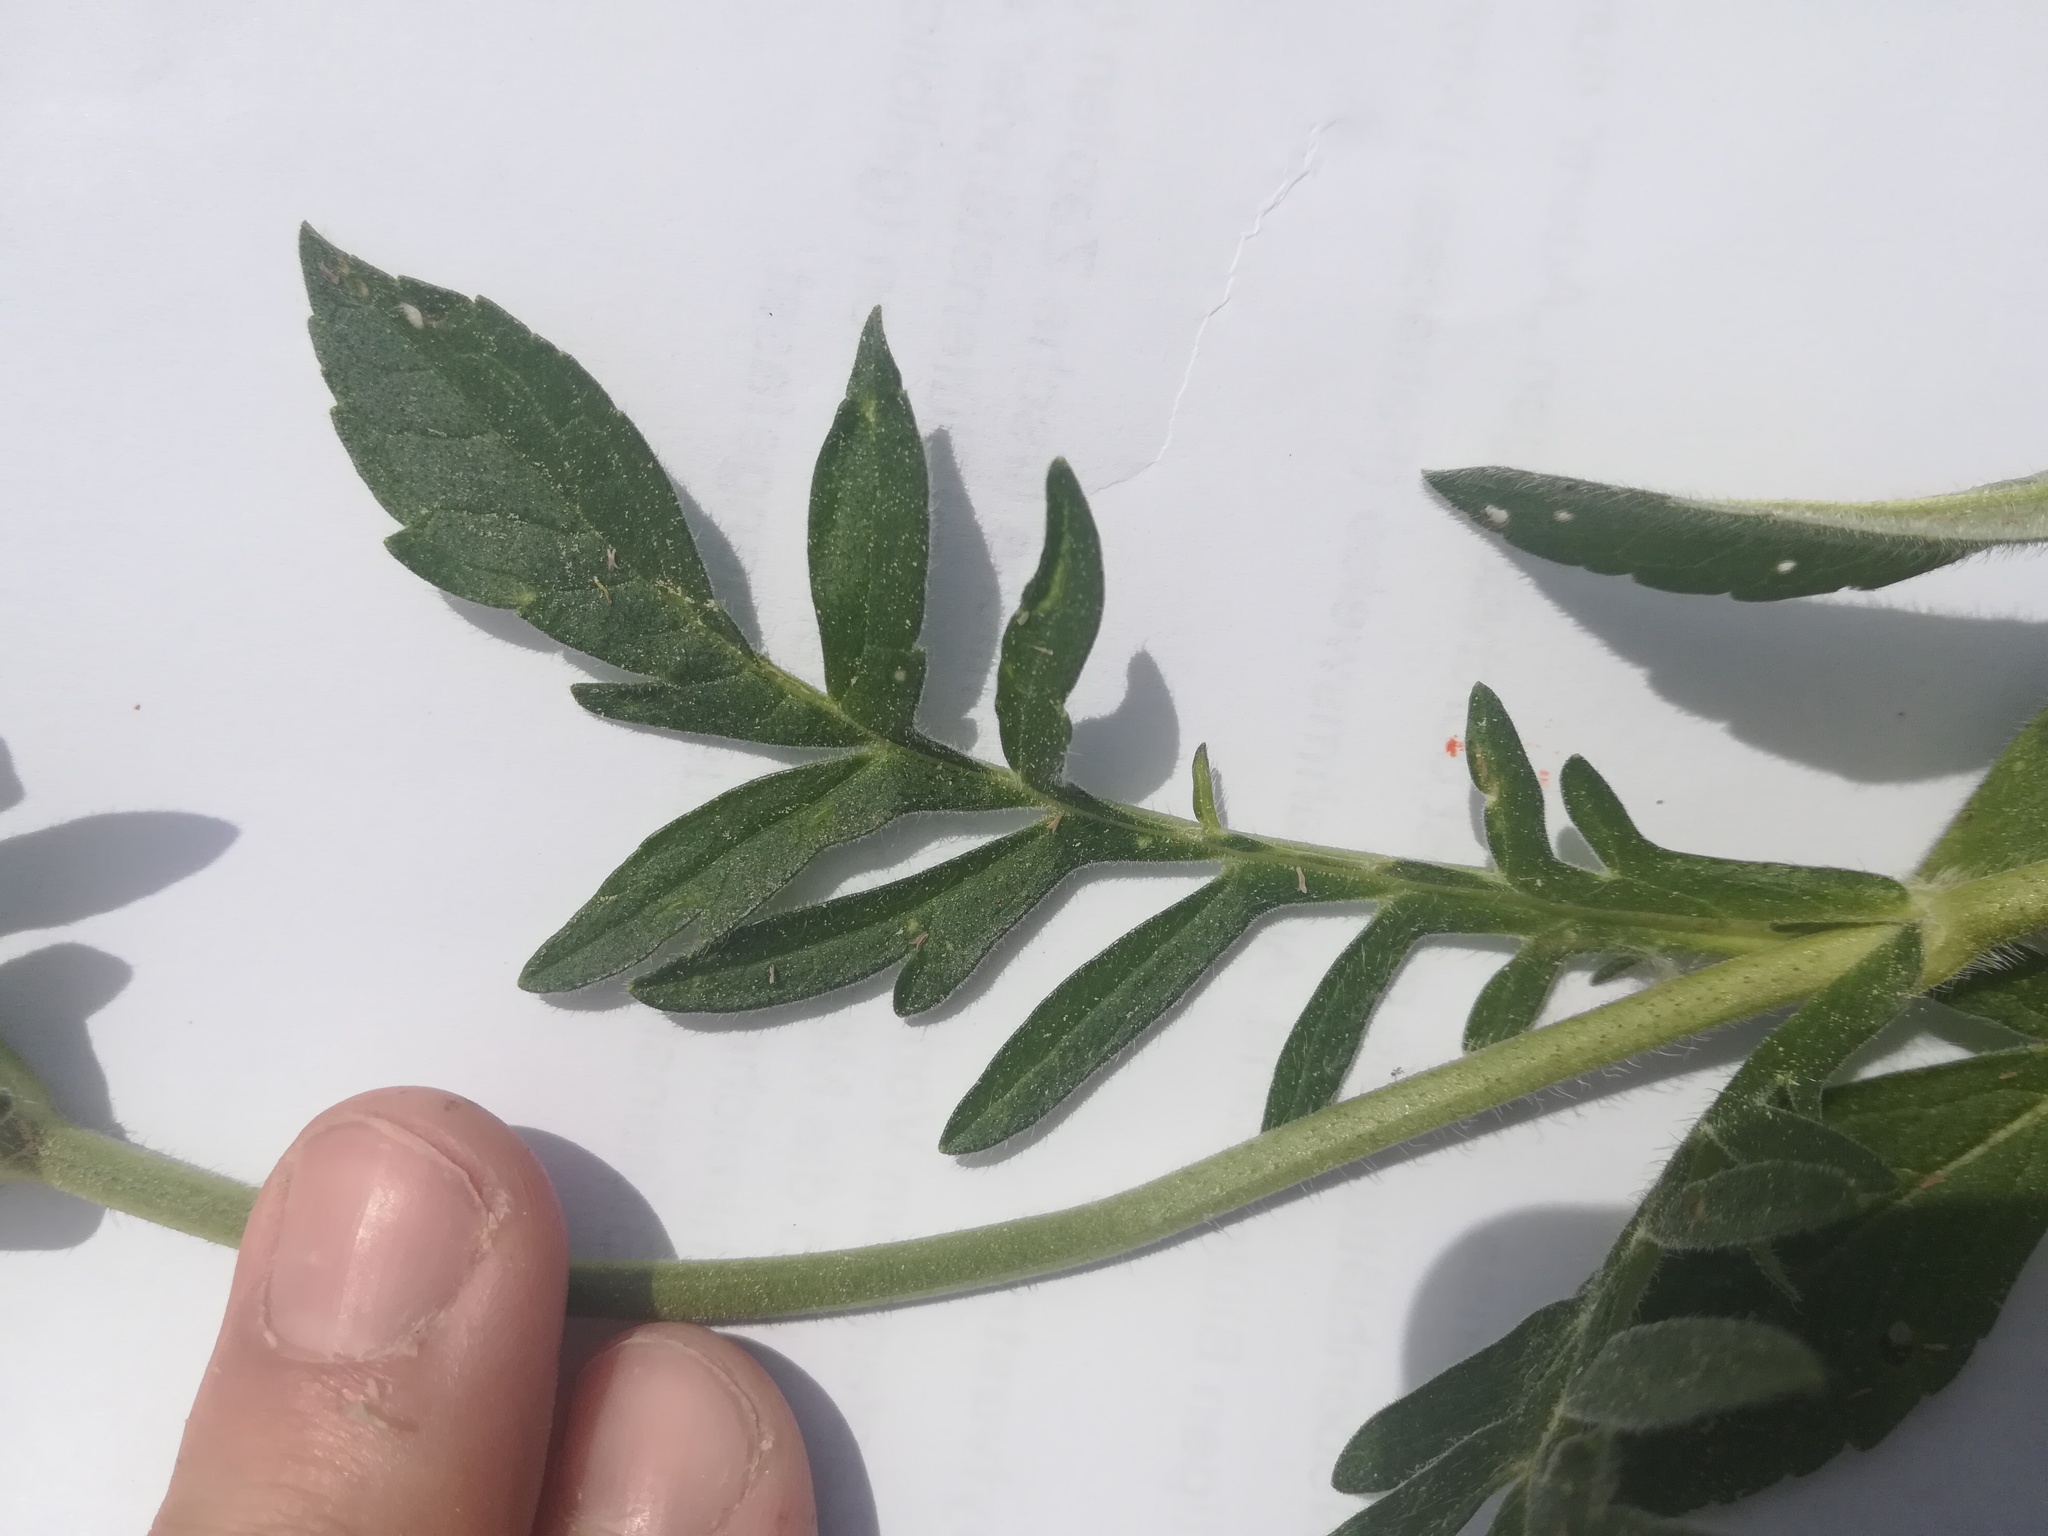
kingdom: Plantae
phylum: Tracheophyta
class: Magnoliopsida
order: Dipsacales
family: Caprifoliaceae
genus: Knautia
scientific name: Knautia arvensis
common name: Field scabiosa
